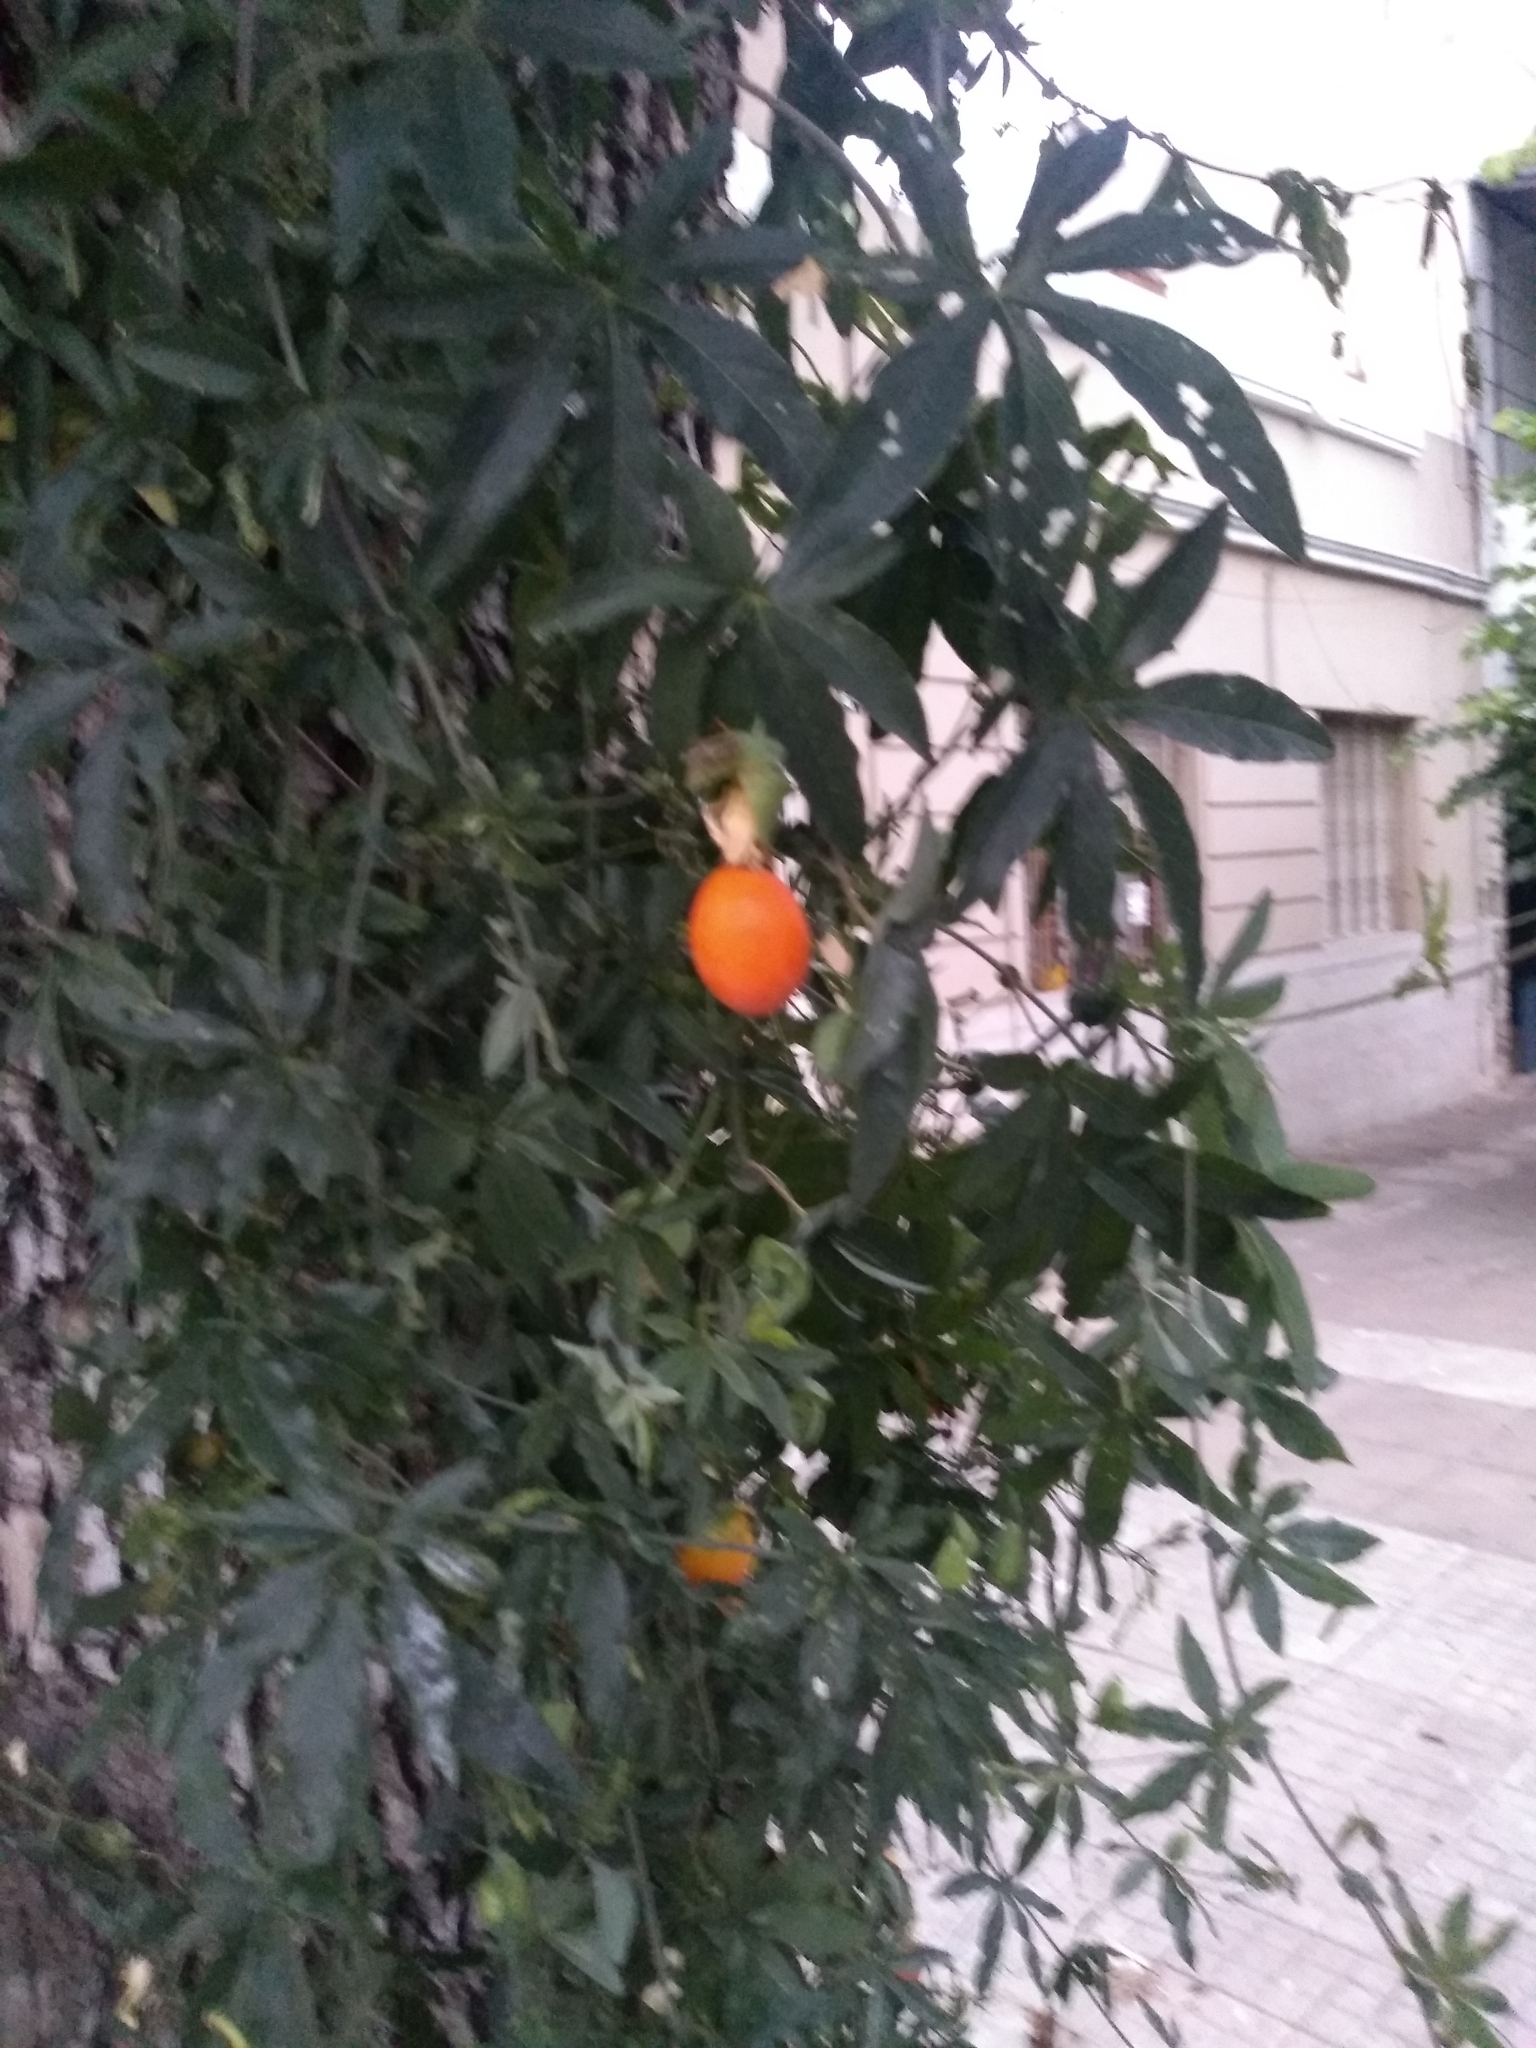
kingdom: Plantae
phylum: Tracheophyta
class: Magnoliopsida
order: Malpighiales
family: Passifloraceae
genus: Passiflora
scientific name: Passiflora caerulea
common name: Blue passionflower
